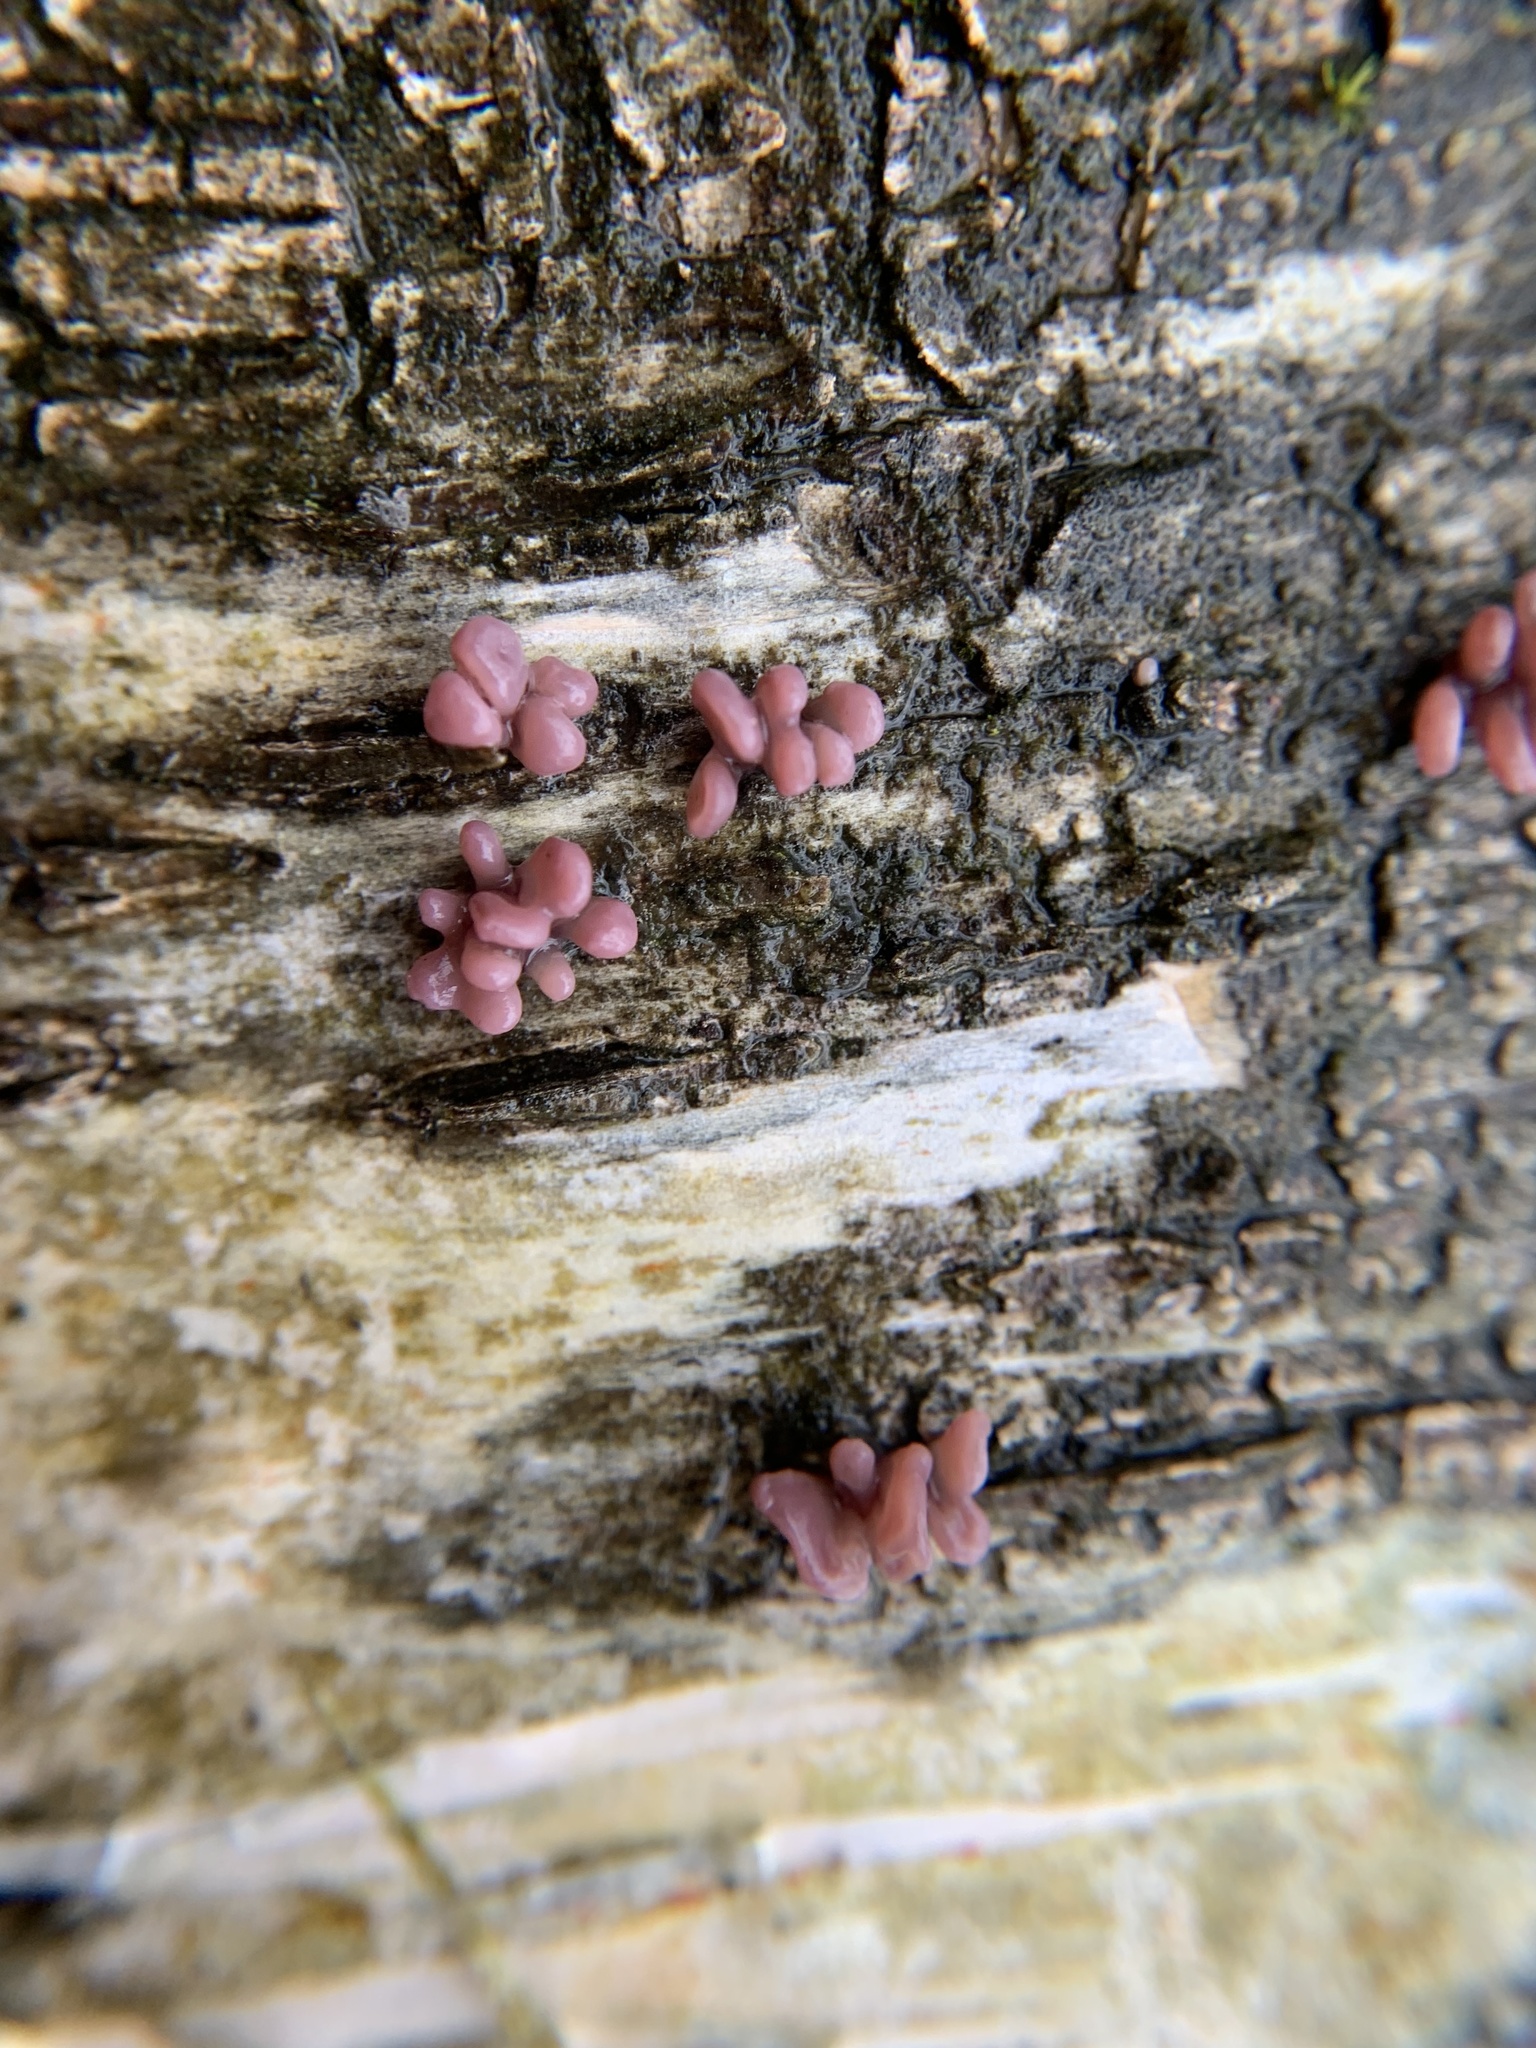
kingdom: Fungi
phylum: Ascomycota
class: Leotiomycetes
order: Helotiales
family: Gelatinodiscaceae
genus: Ascocoryne
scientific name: Ascocoryne sarcoides
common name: Purple jellydisc
